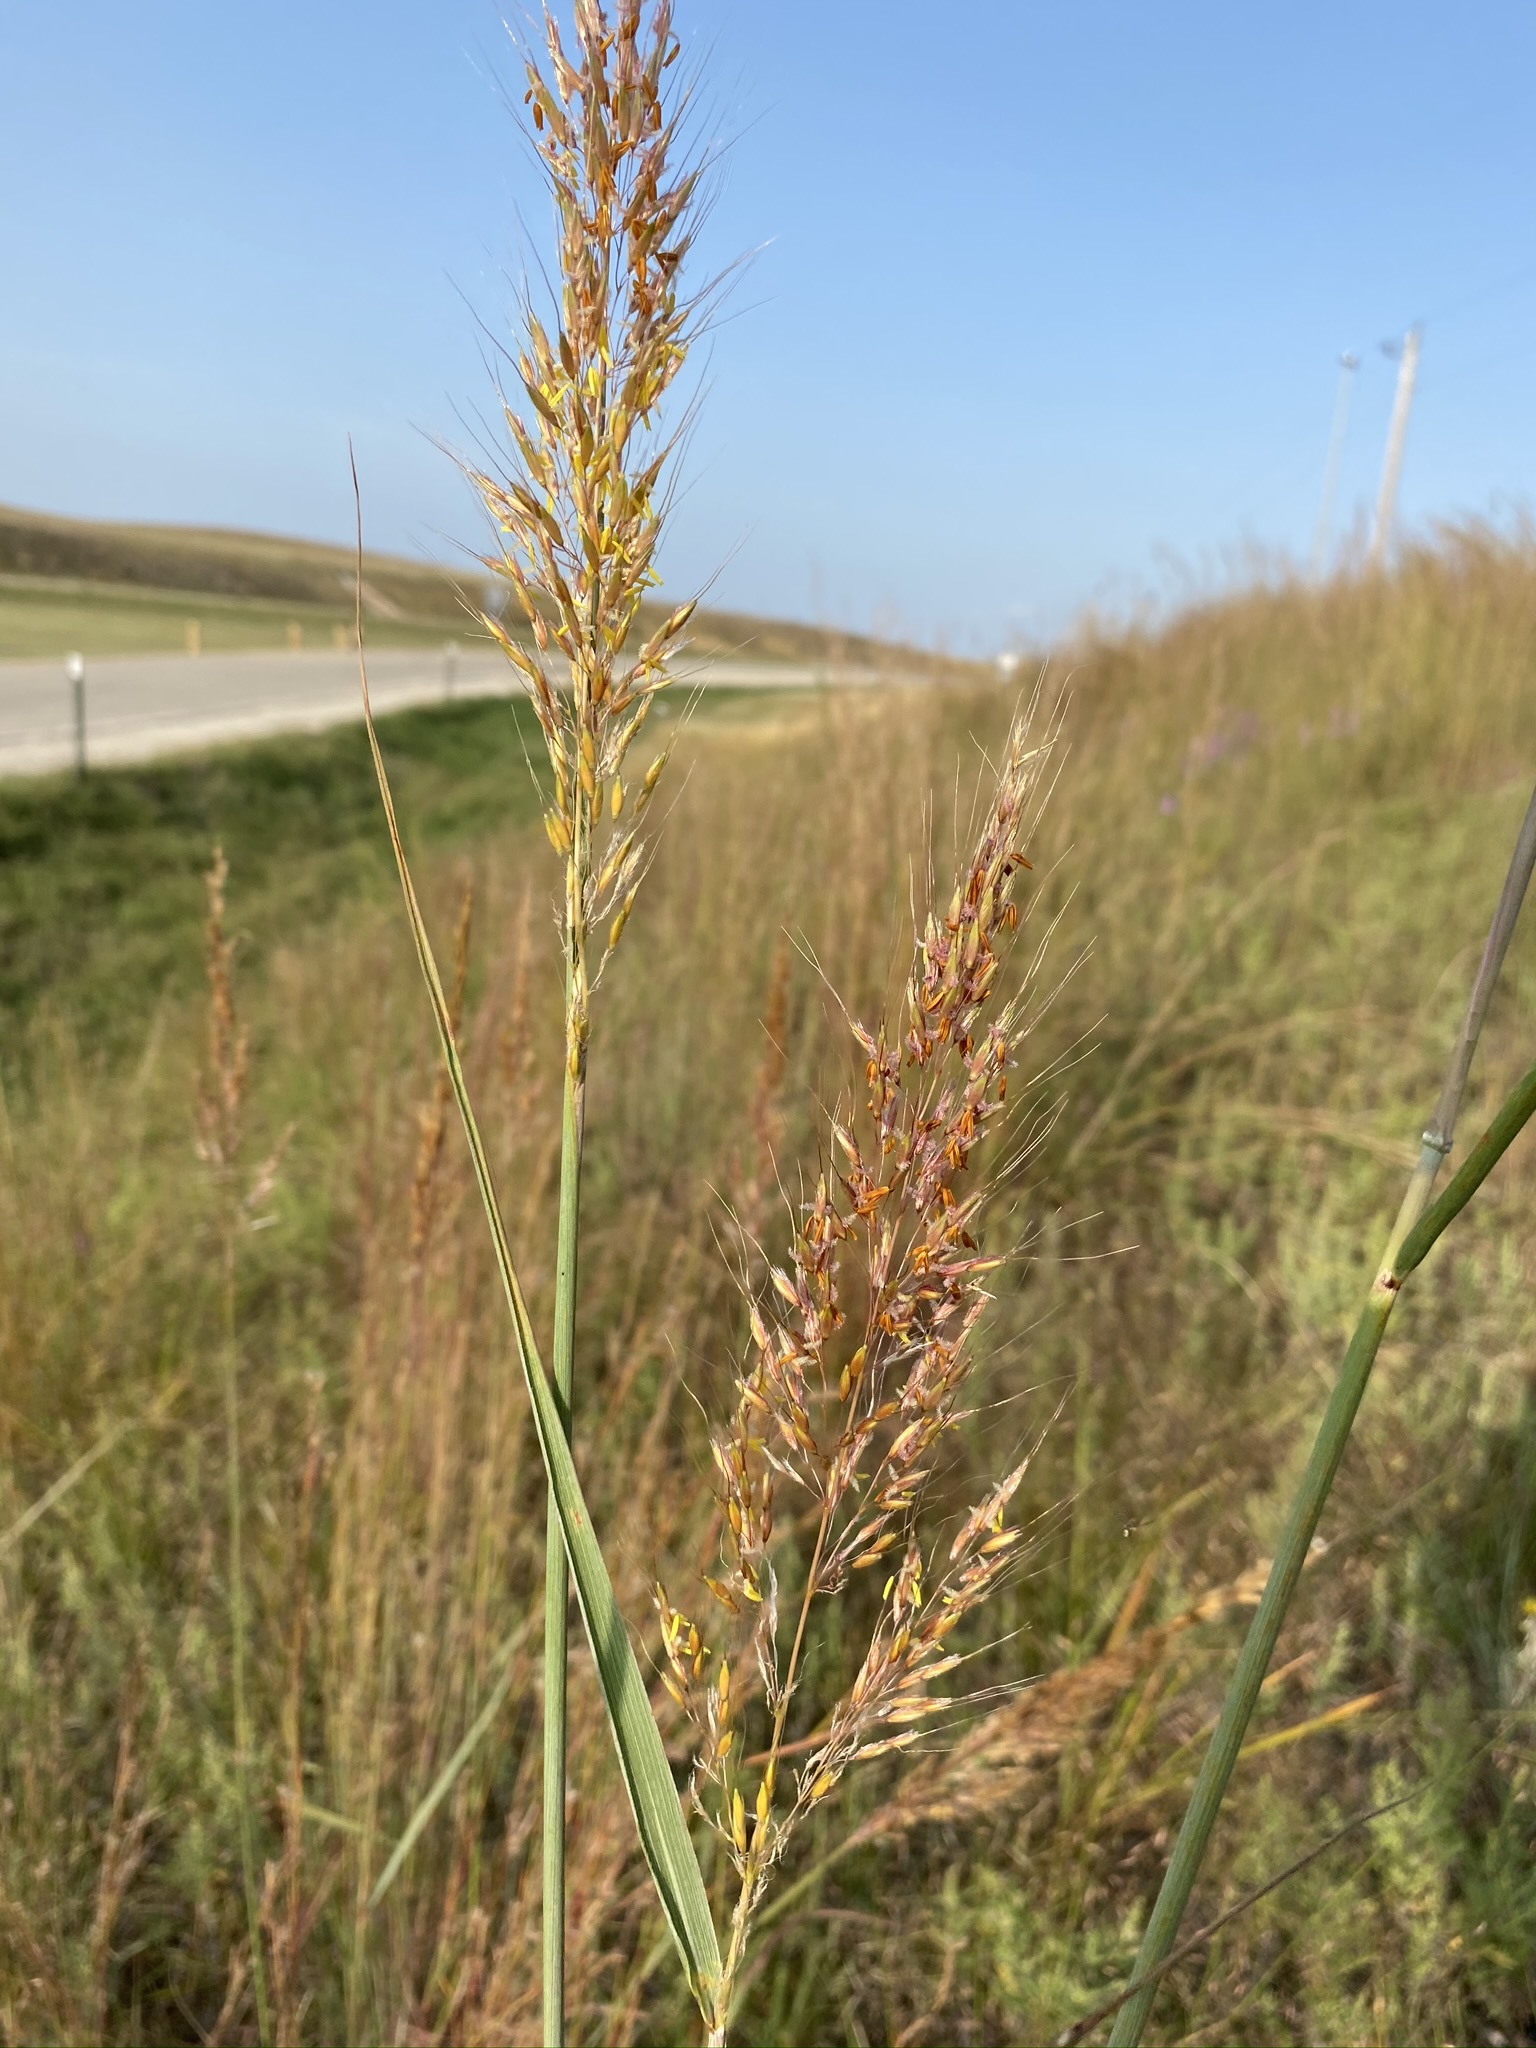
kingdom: Plantae
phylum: Tracheophyta
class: Liliopsida
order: Poales
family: Poaceae
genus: Sorghastrum
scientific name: Sorghastrum nutans
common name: Indian grass
